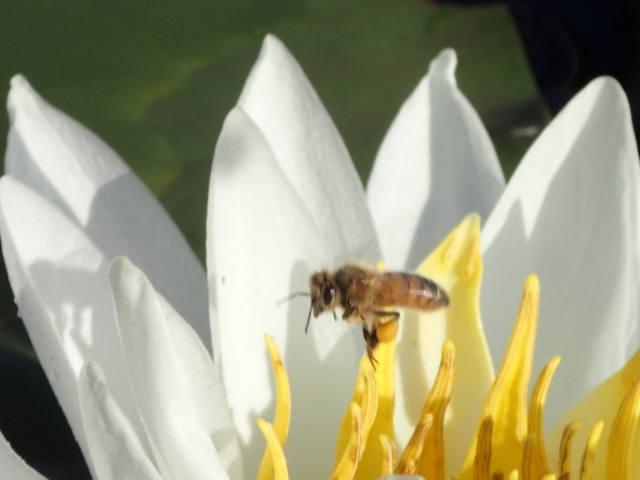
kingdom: Animalia
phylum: Arthropoda
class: Insecta
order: Hymenoptera
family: Apidae
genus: Apis
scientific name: Apis mellifera
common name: Honey bee
